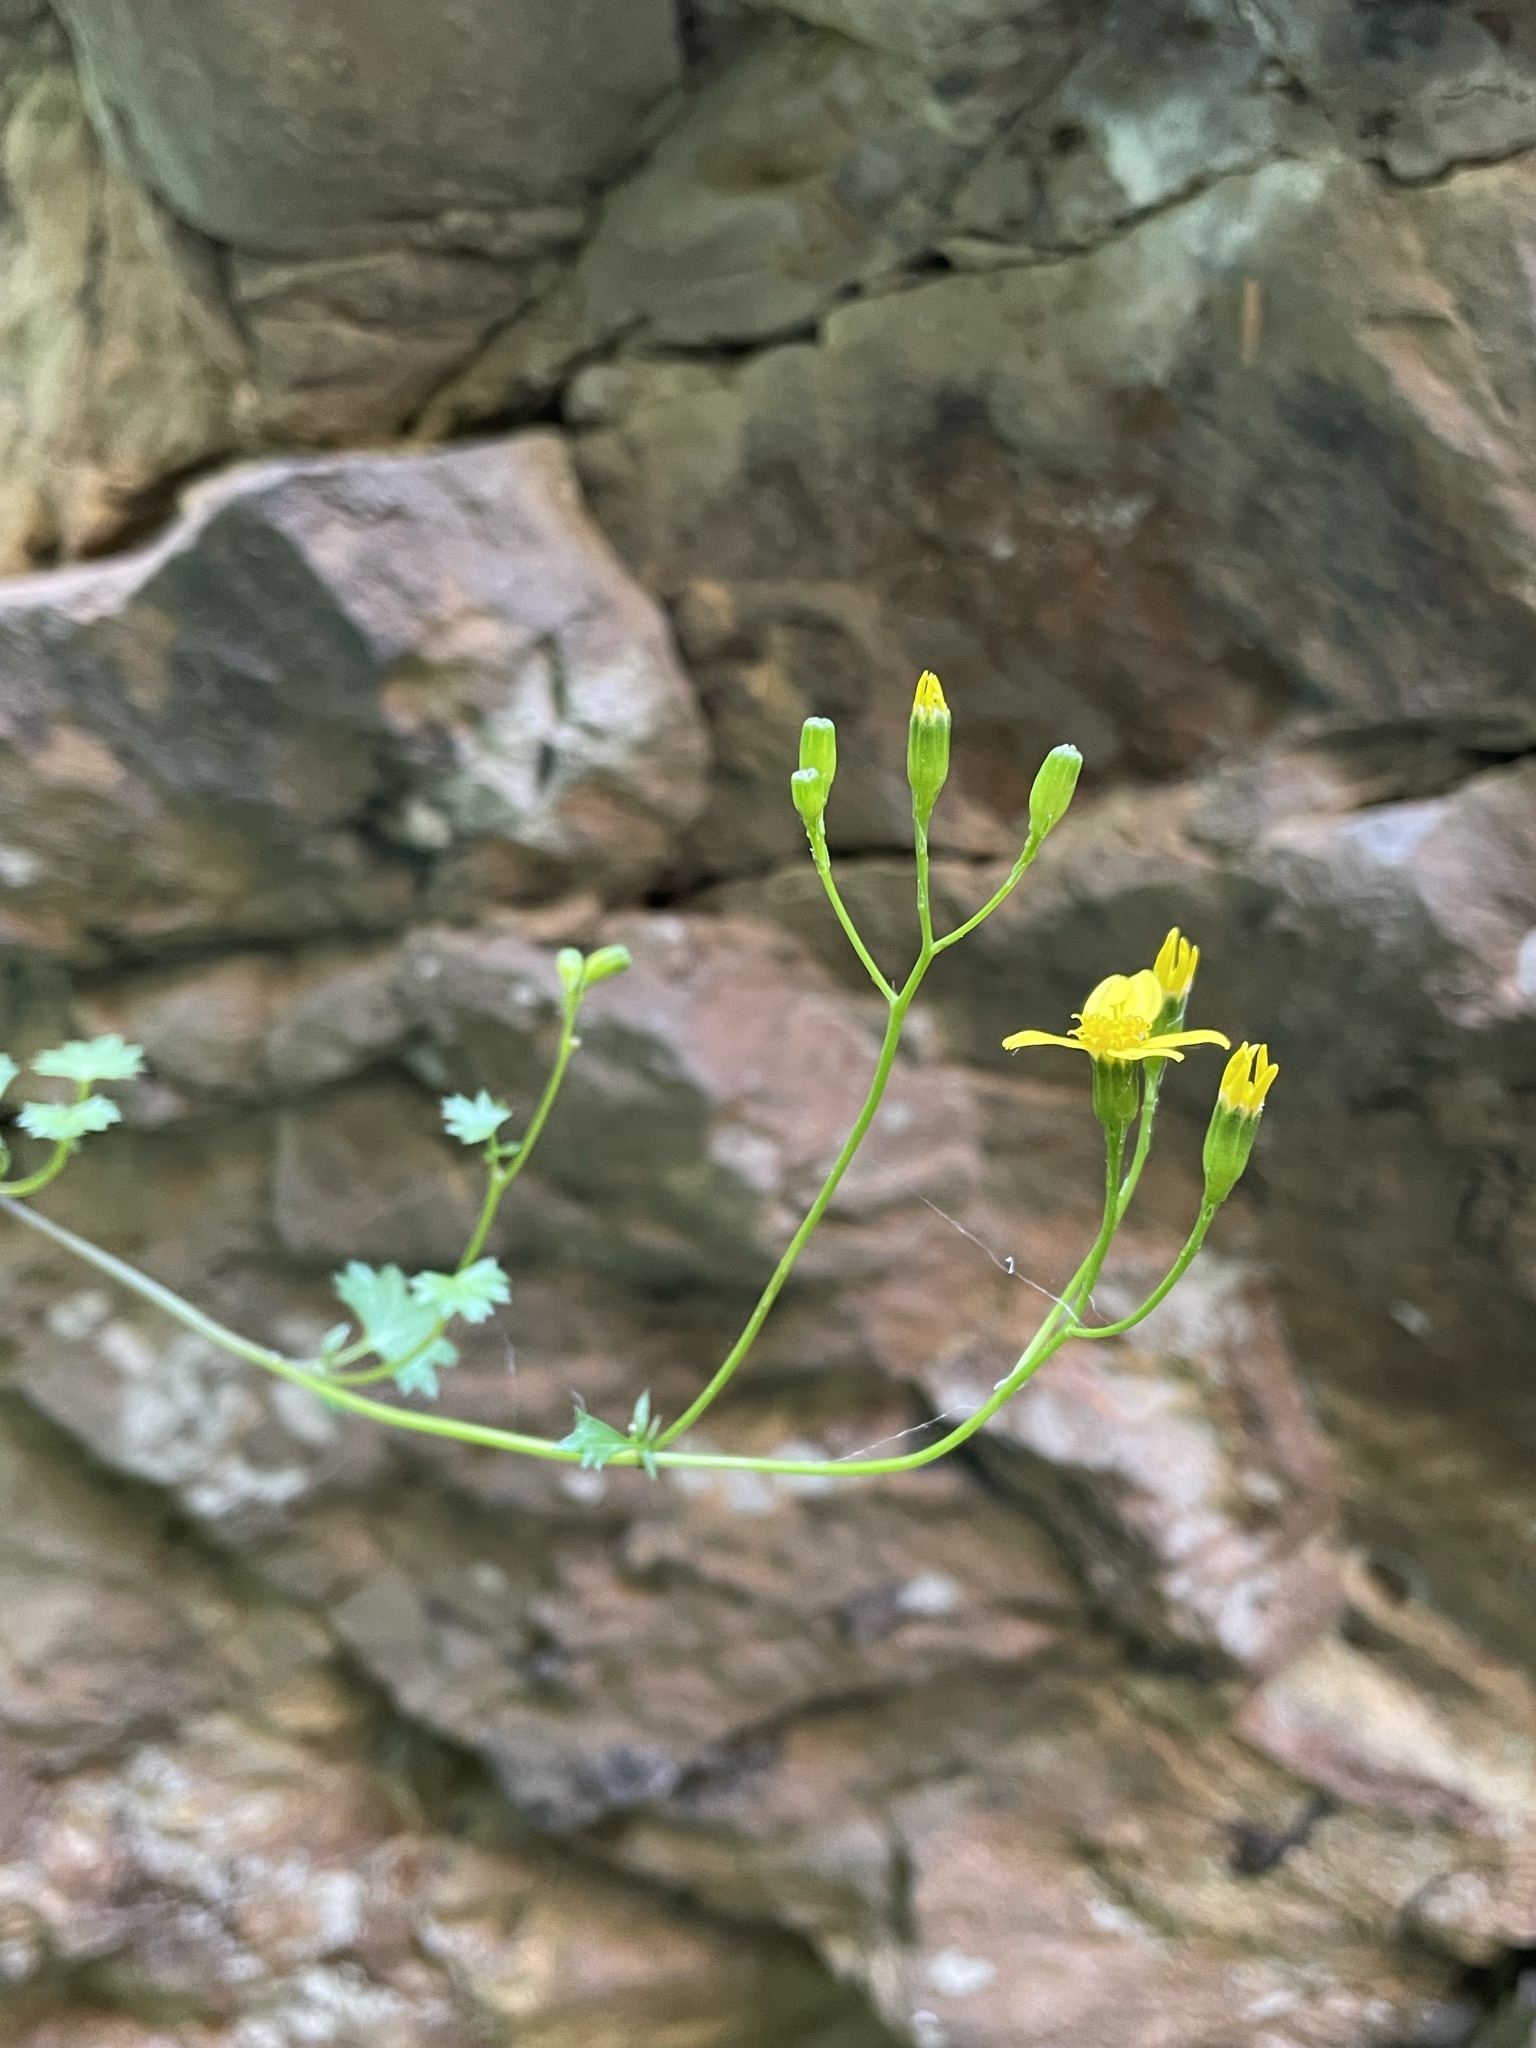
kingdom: Plantae
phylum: Tracheophyta
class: Magnoliopsida
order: Asterales
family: Asteraceae
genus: Cineraria
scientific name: Cineraria saxifraga
